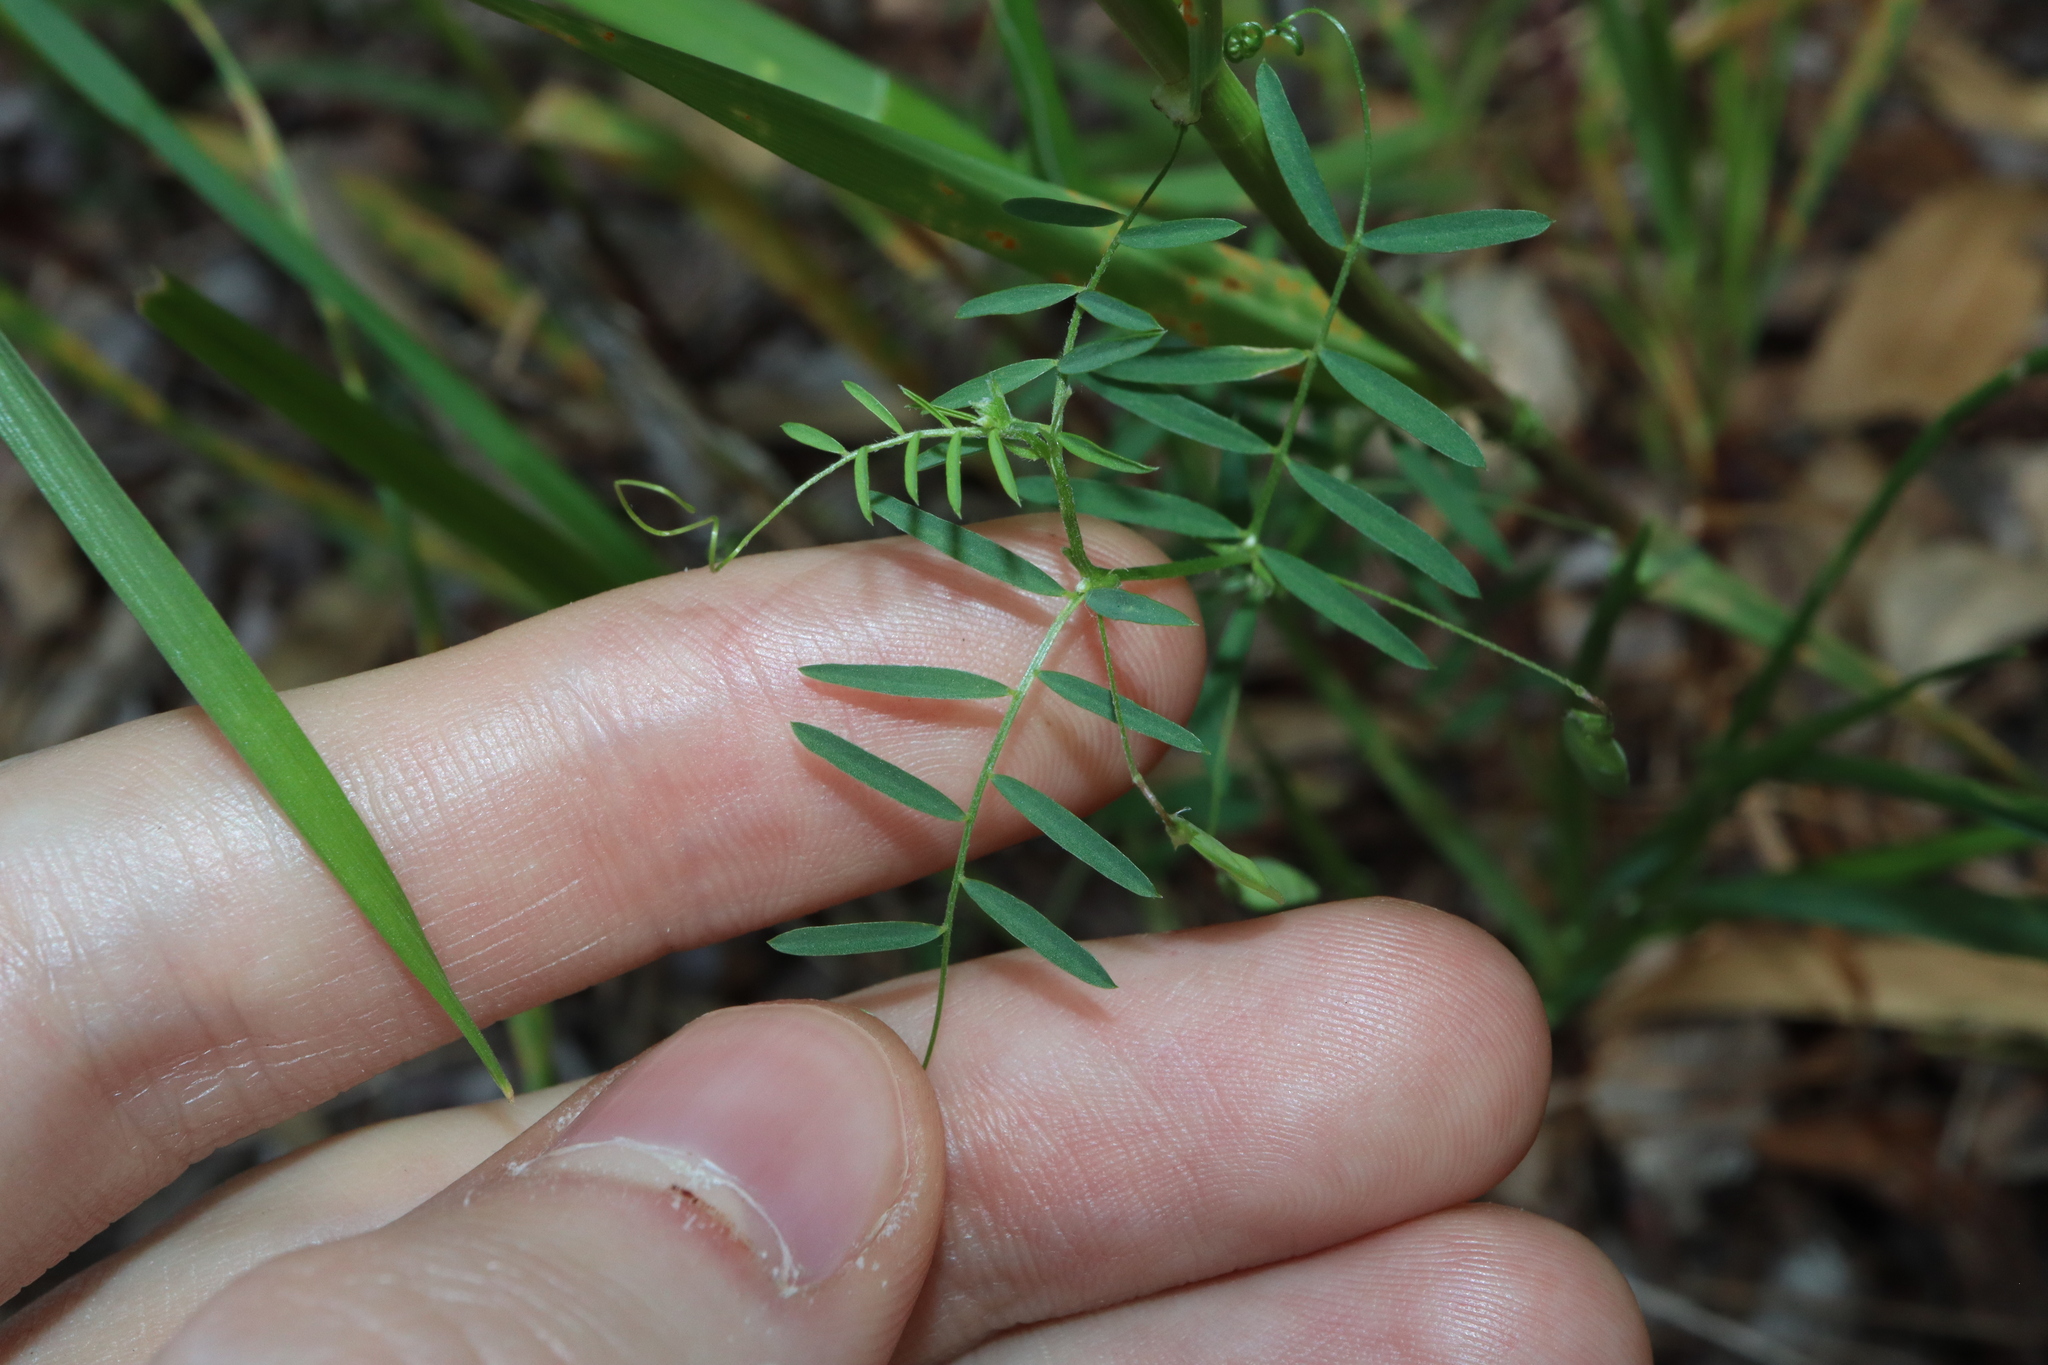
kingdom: Plantae
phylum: Tracheophyta
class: Magnoliopsida
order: Fabales
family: Fabaceae
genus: Vicia
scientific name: Vicia tetrasperma
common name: Smooth tare
